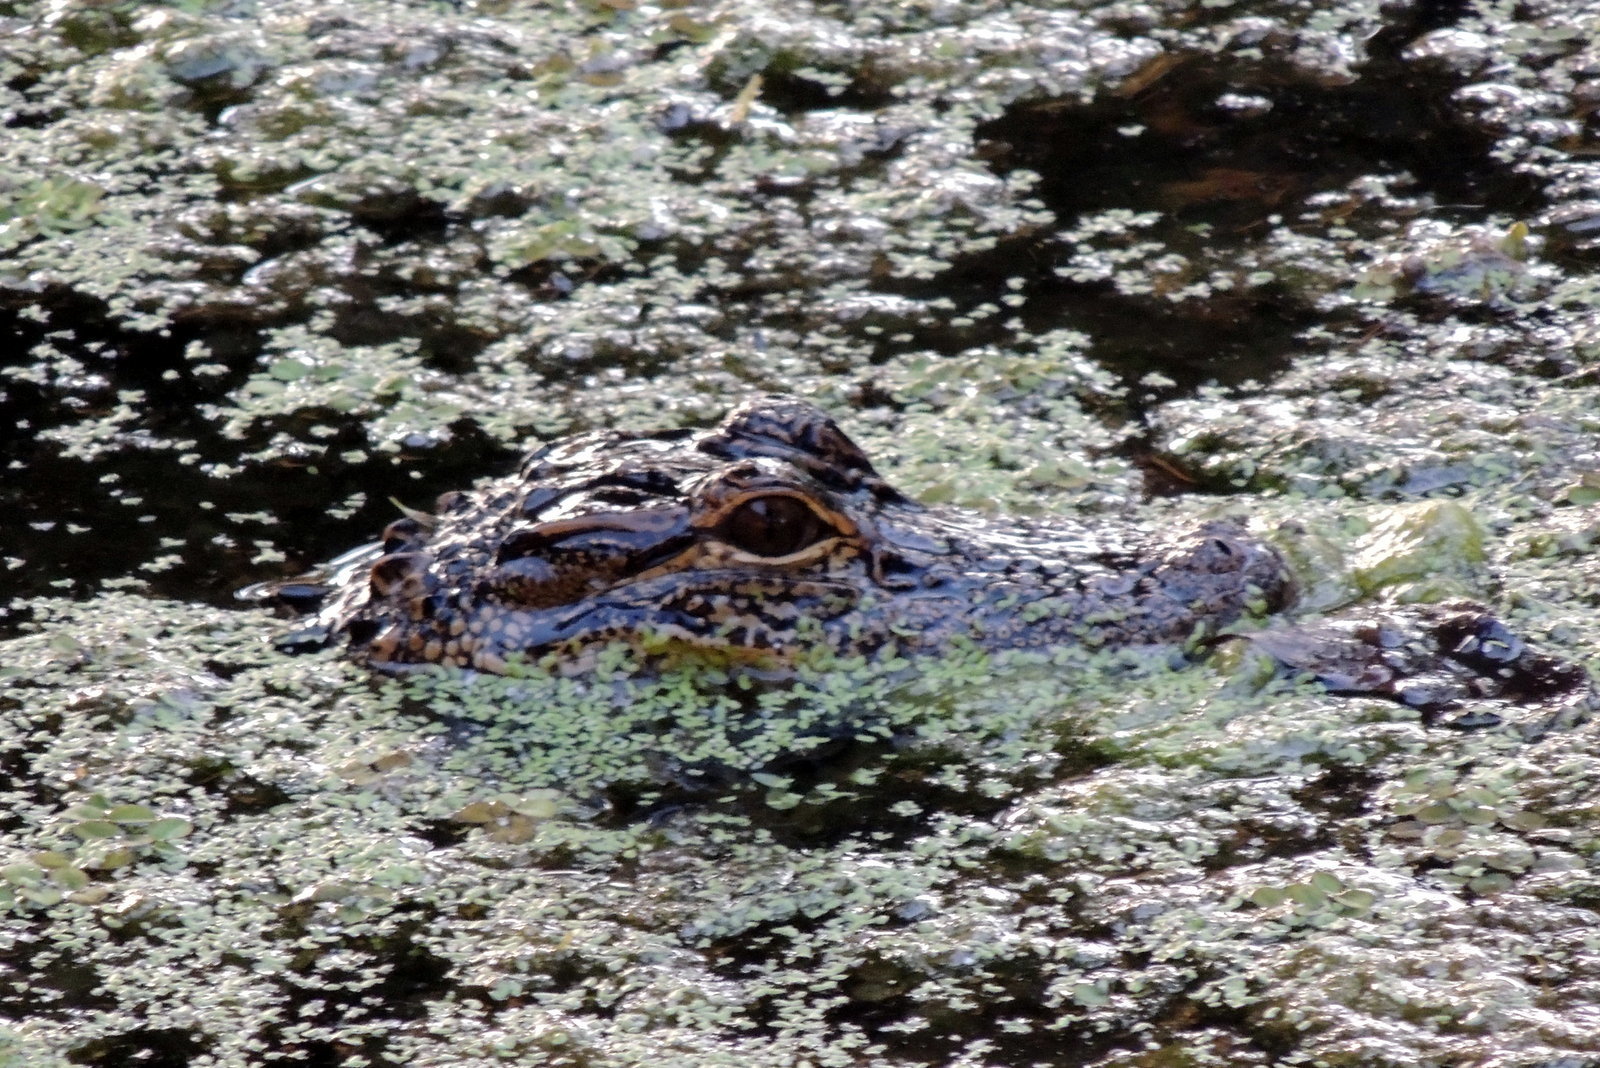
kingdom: Animalia
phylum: Chordata
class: Crocodylia
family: Alligatoridae
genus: Alligator
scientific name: Alligator mississippiensis
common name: American alligator
